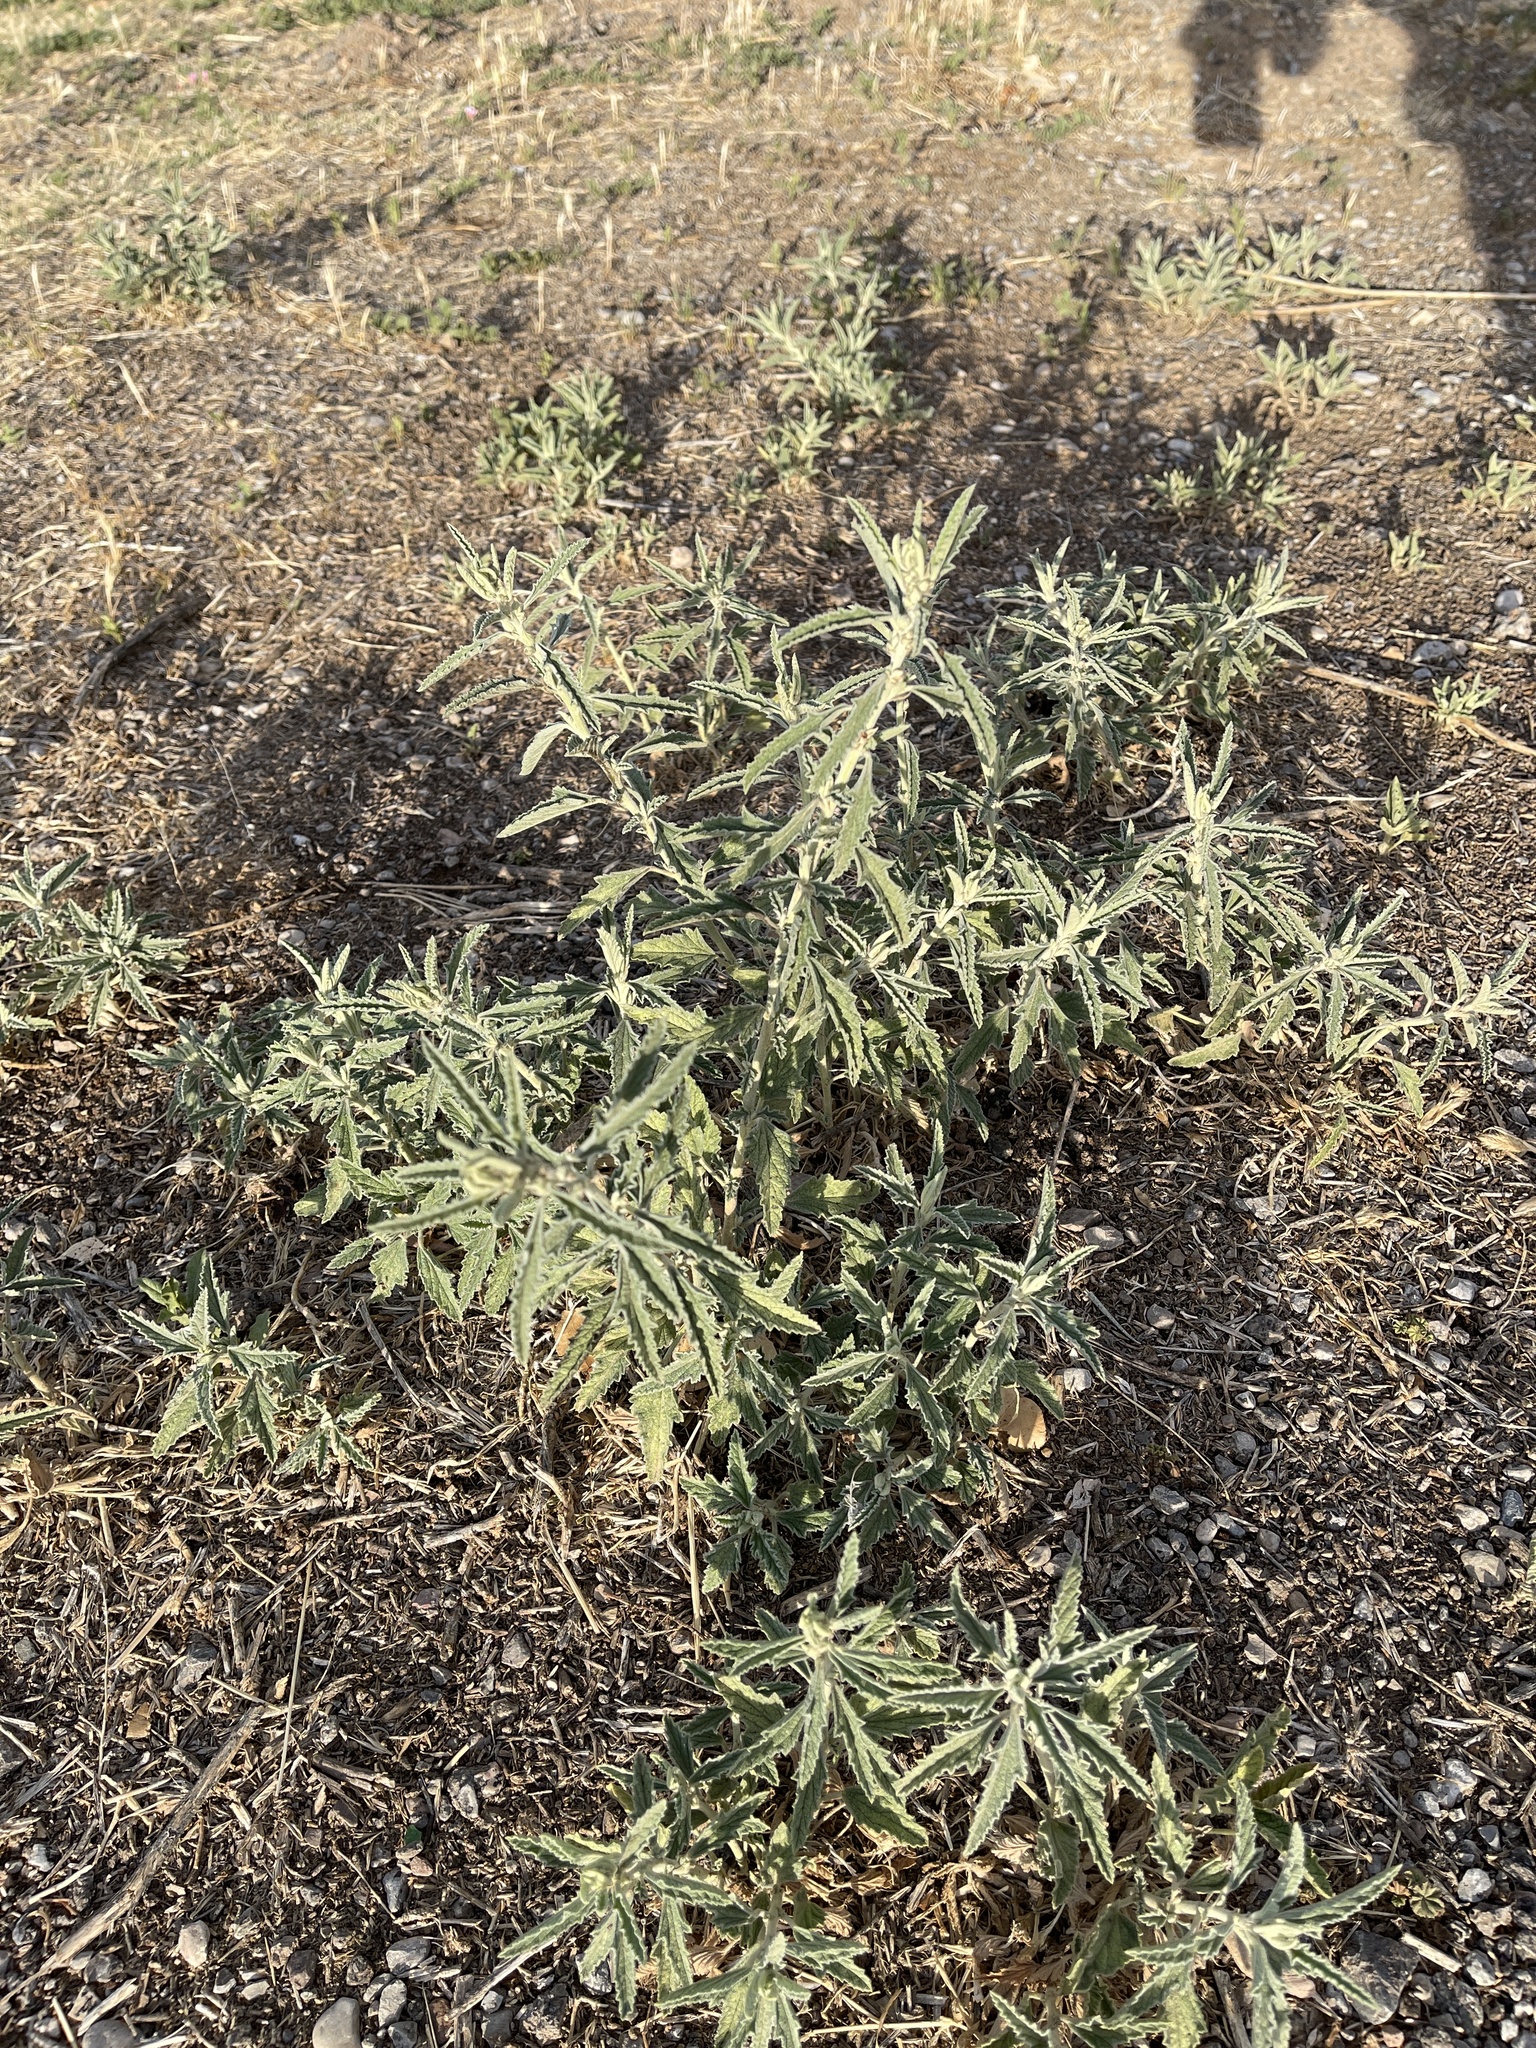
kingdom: Plantae
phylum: Tracheophyta
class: Magnoliopsida
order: Malvales
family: Malvaceae
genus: Sphaeralcea
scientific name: Sphaeralcea hastulata
